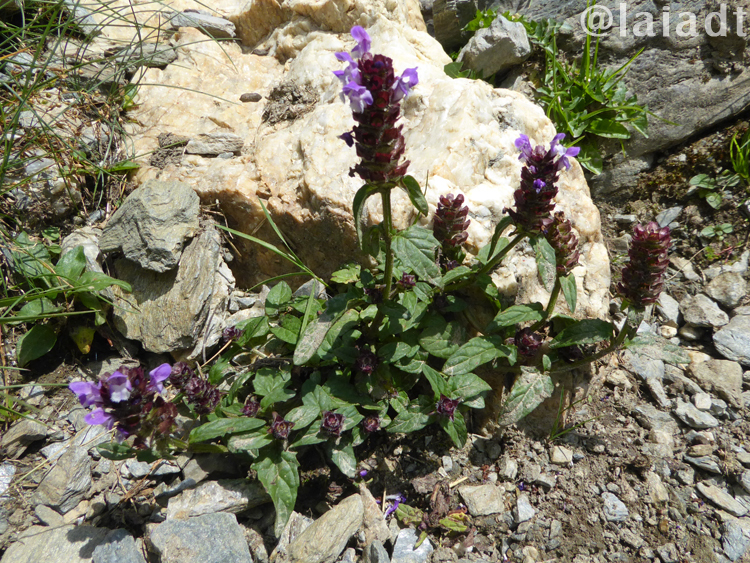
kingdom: Plantae
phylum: Tracheophyta
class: Magnoliopsida
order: Lamiales
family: Lamiaceae
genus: Prunella
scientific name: Prunella vulgaris
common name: Heal-all
